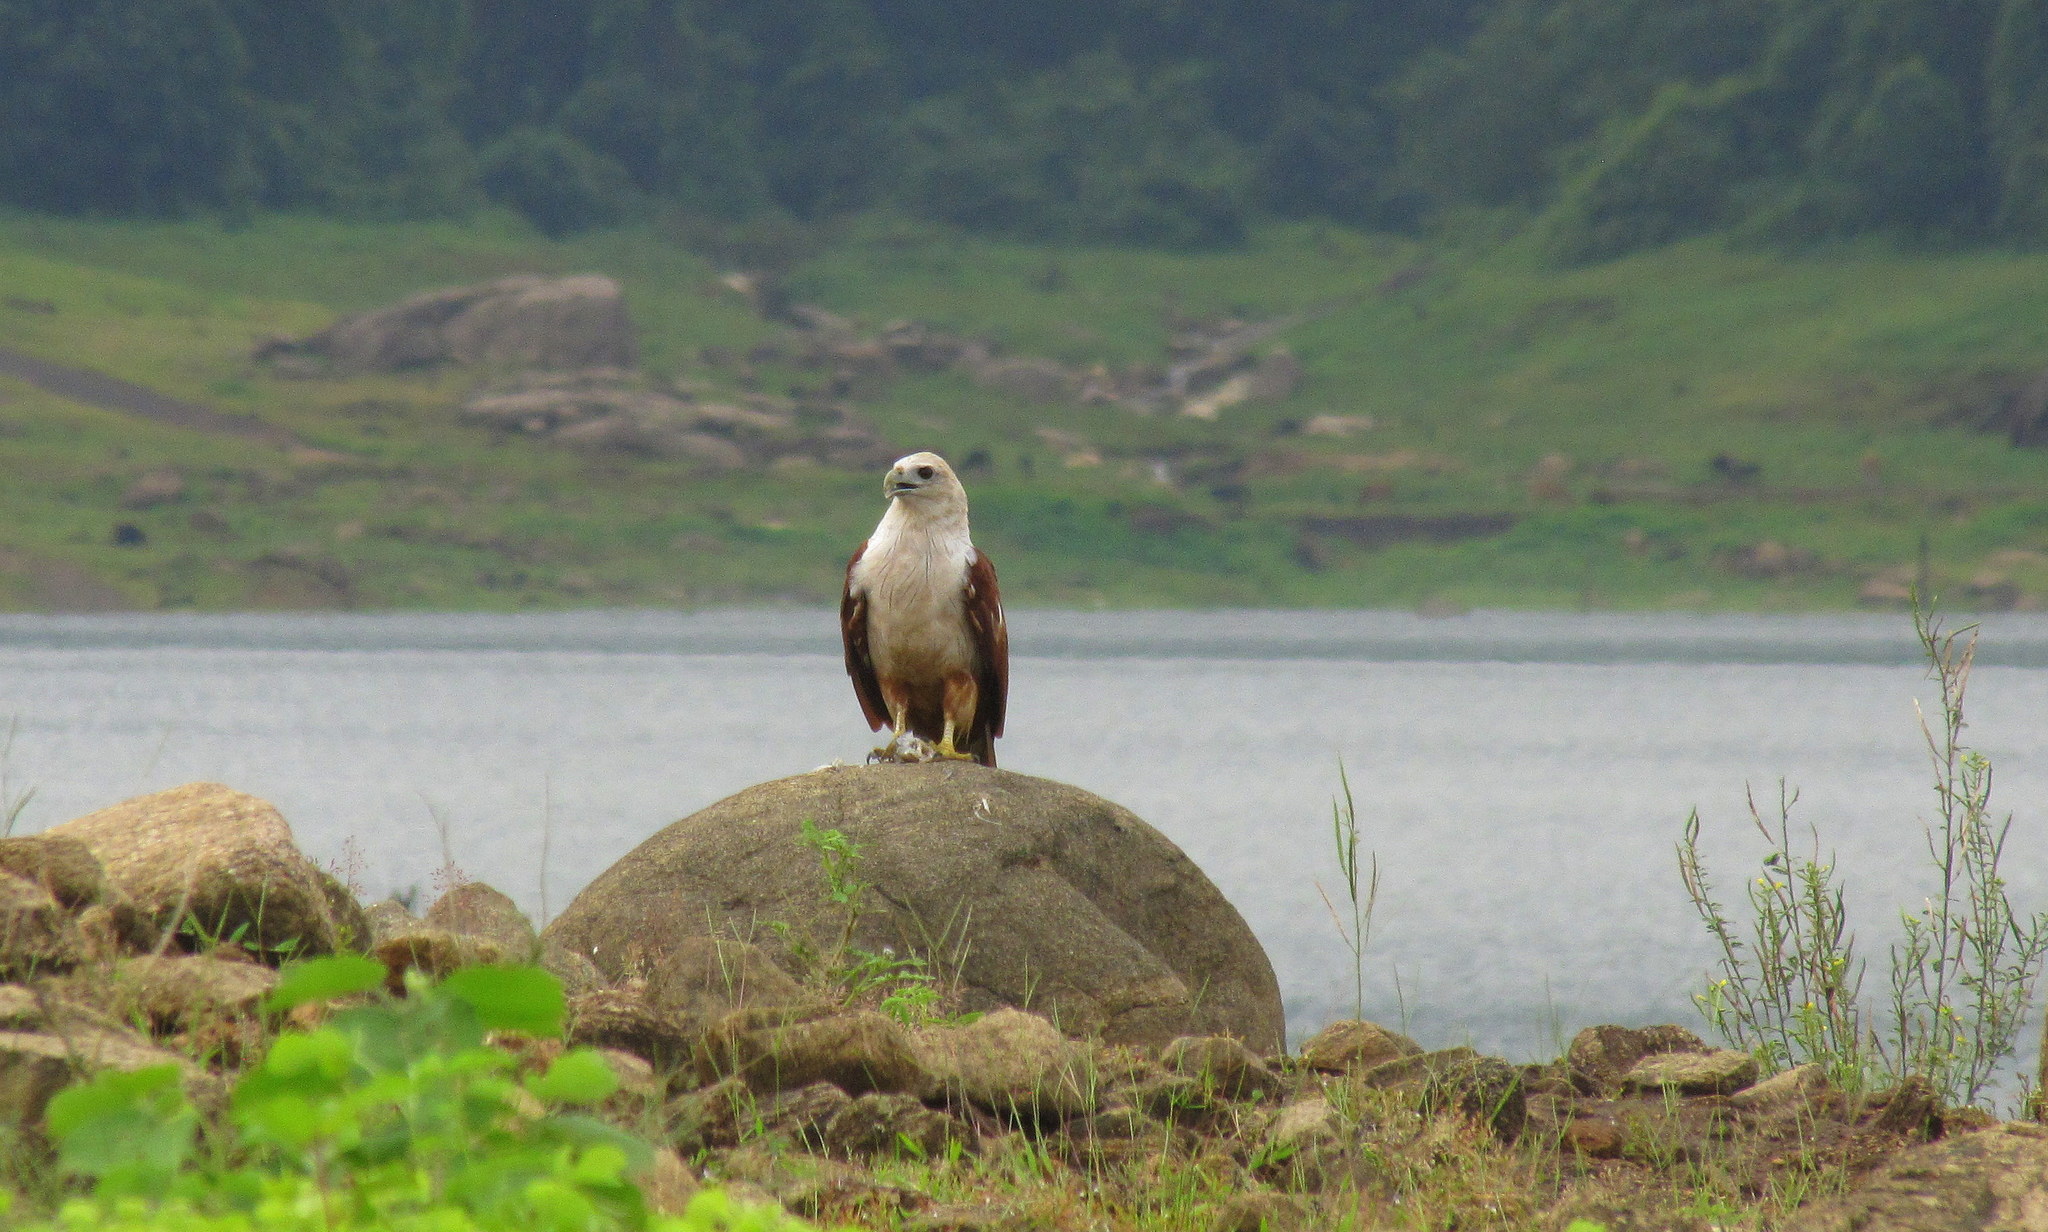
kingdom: Animalia
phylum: Chordata
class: Aves
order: Accipitriformes
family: Accipitridae
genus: Haliastur
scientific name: Haliastur indus
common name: Brahminy kite
